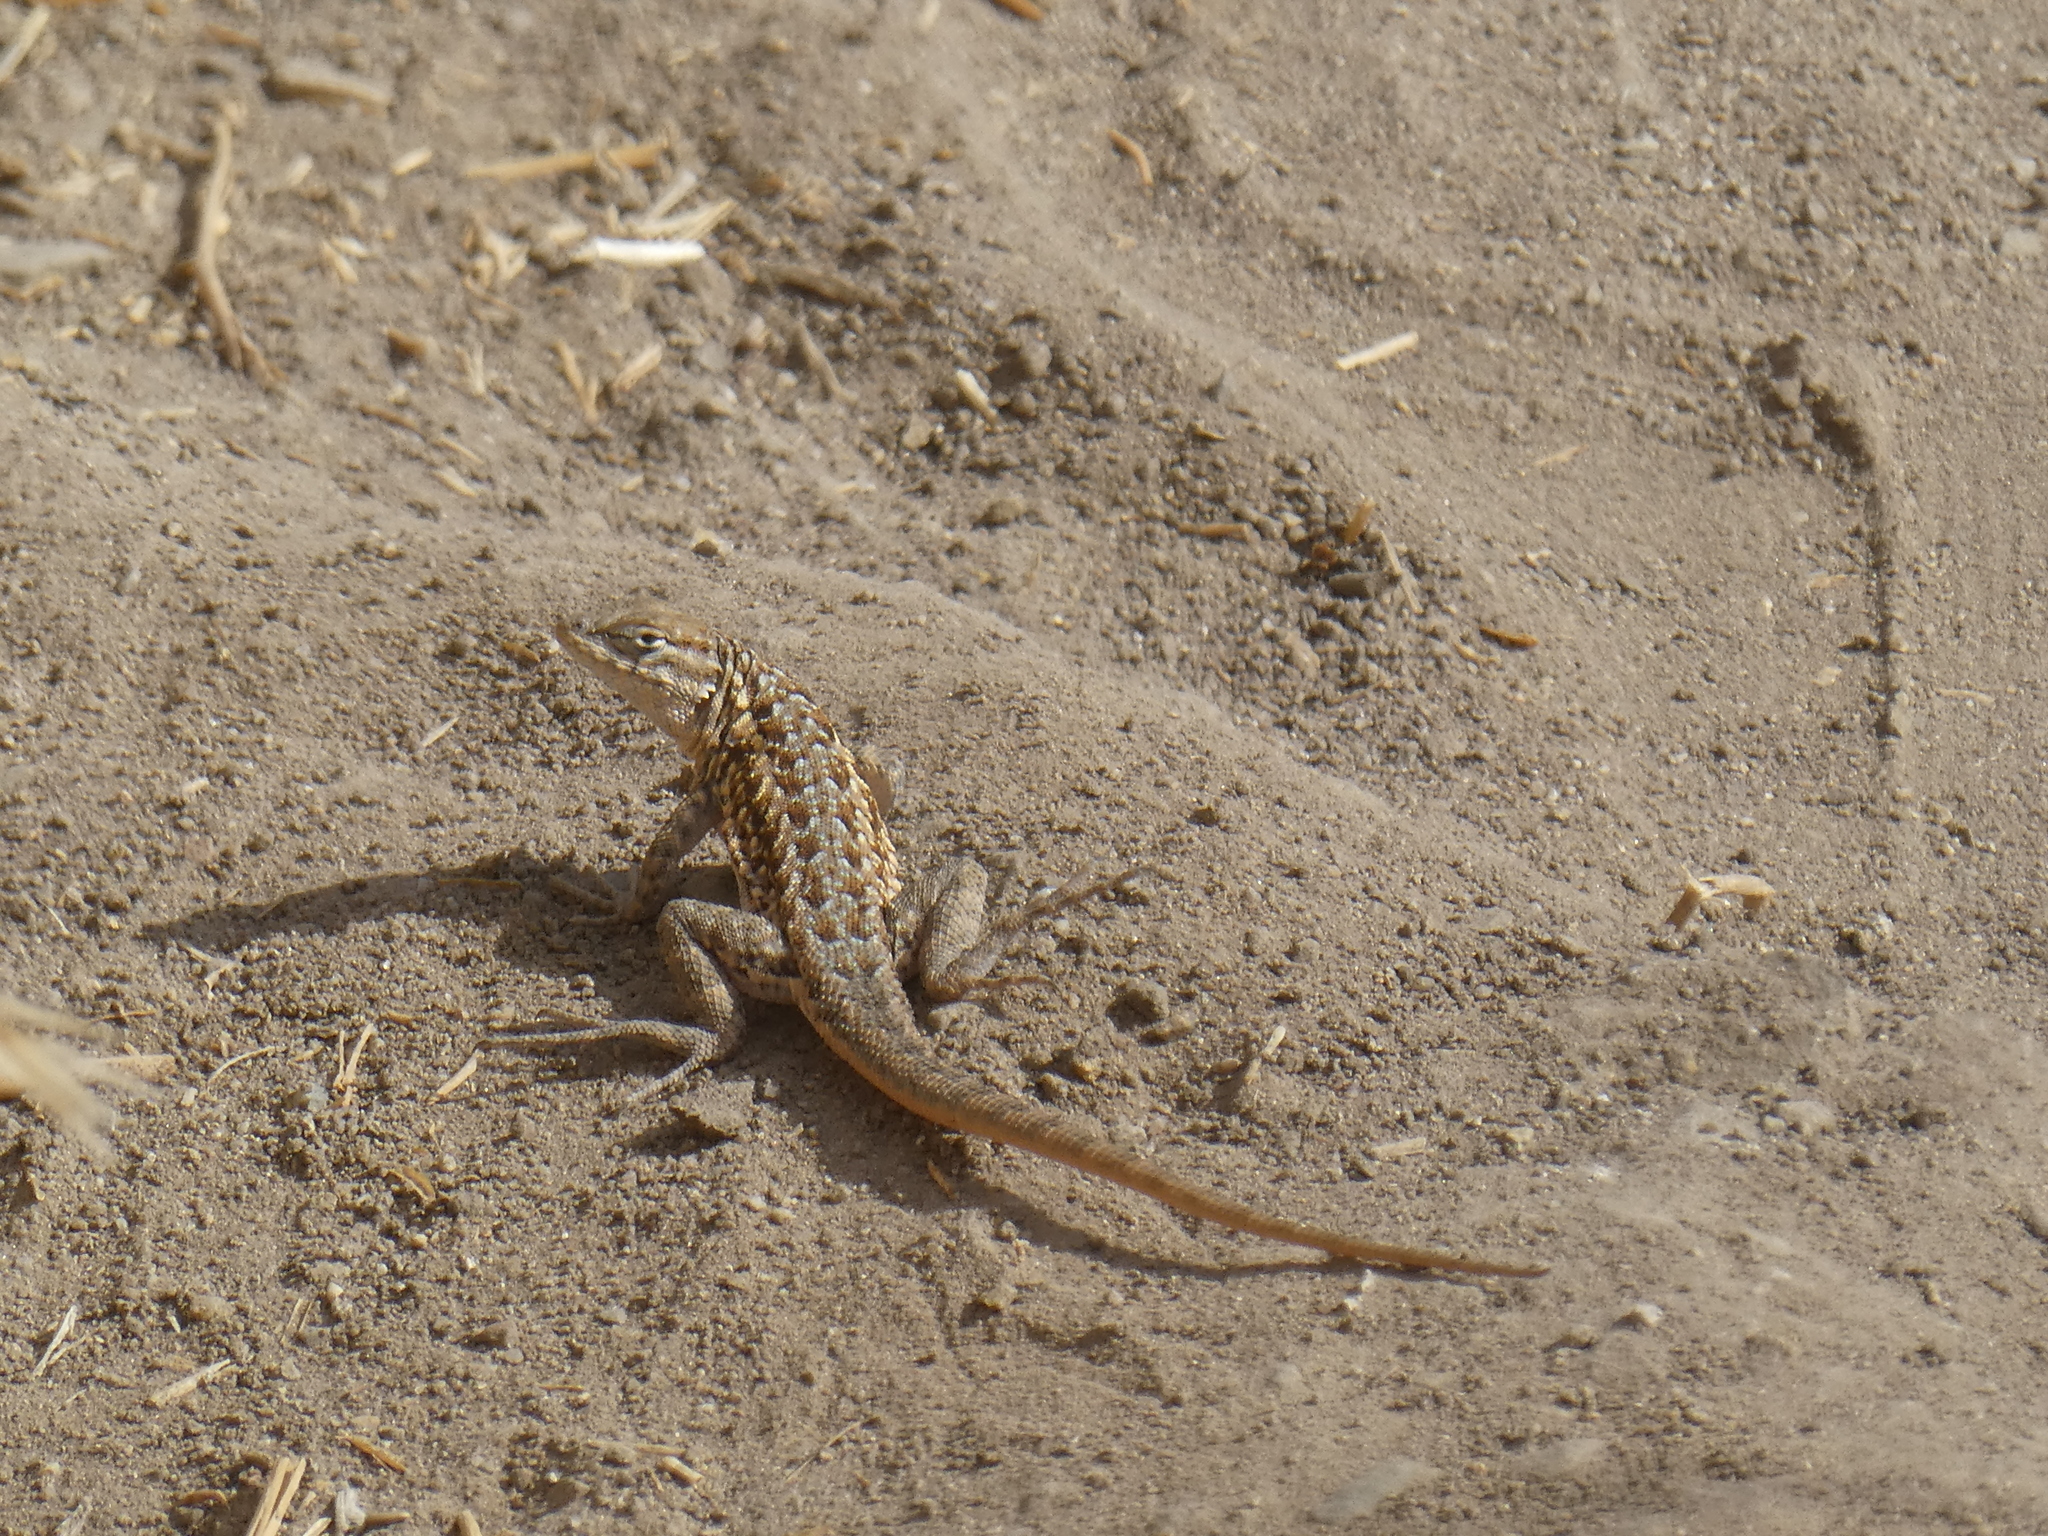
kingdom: Animalia
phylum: Chordata
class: Squamata
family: Phrynosomatidae
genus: Uta
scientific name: Uta stansburiana
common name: Side-blotched lizard
